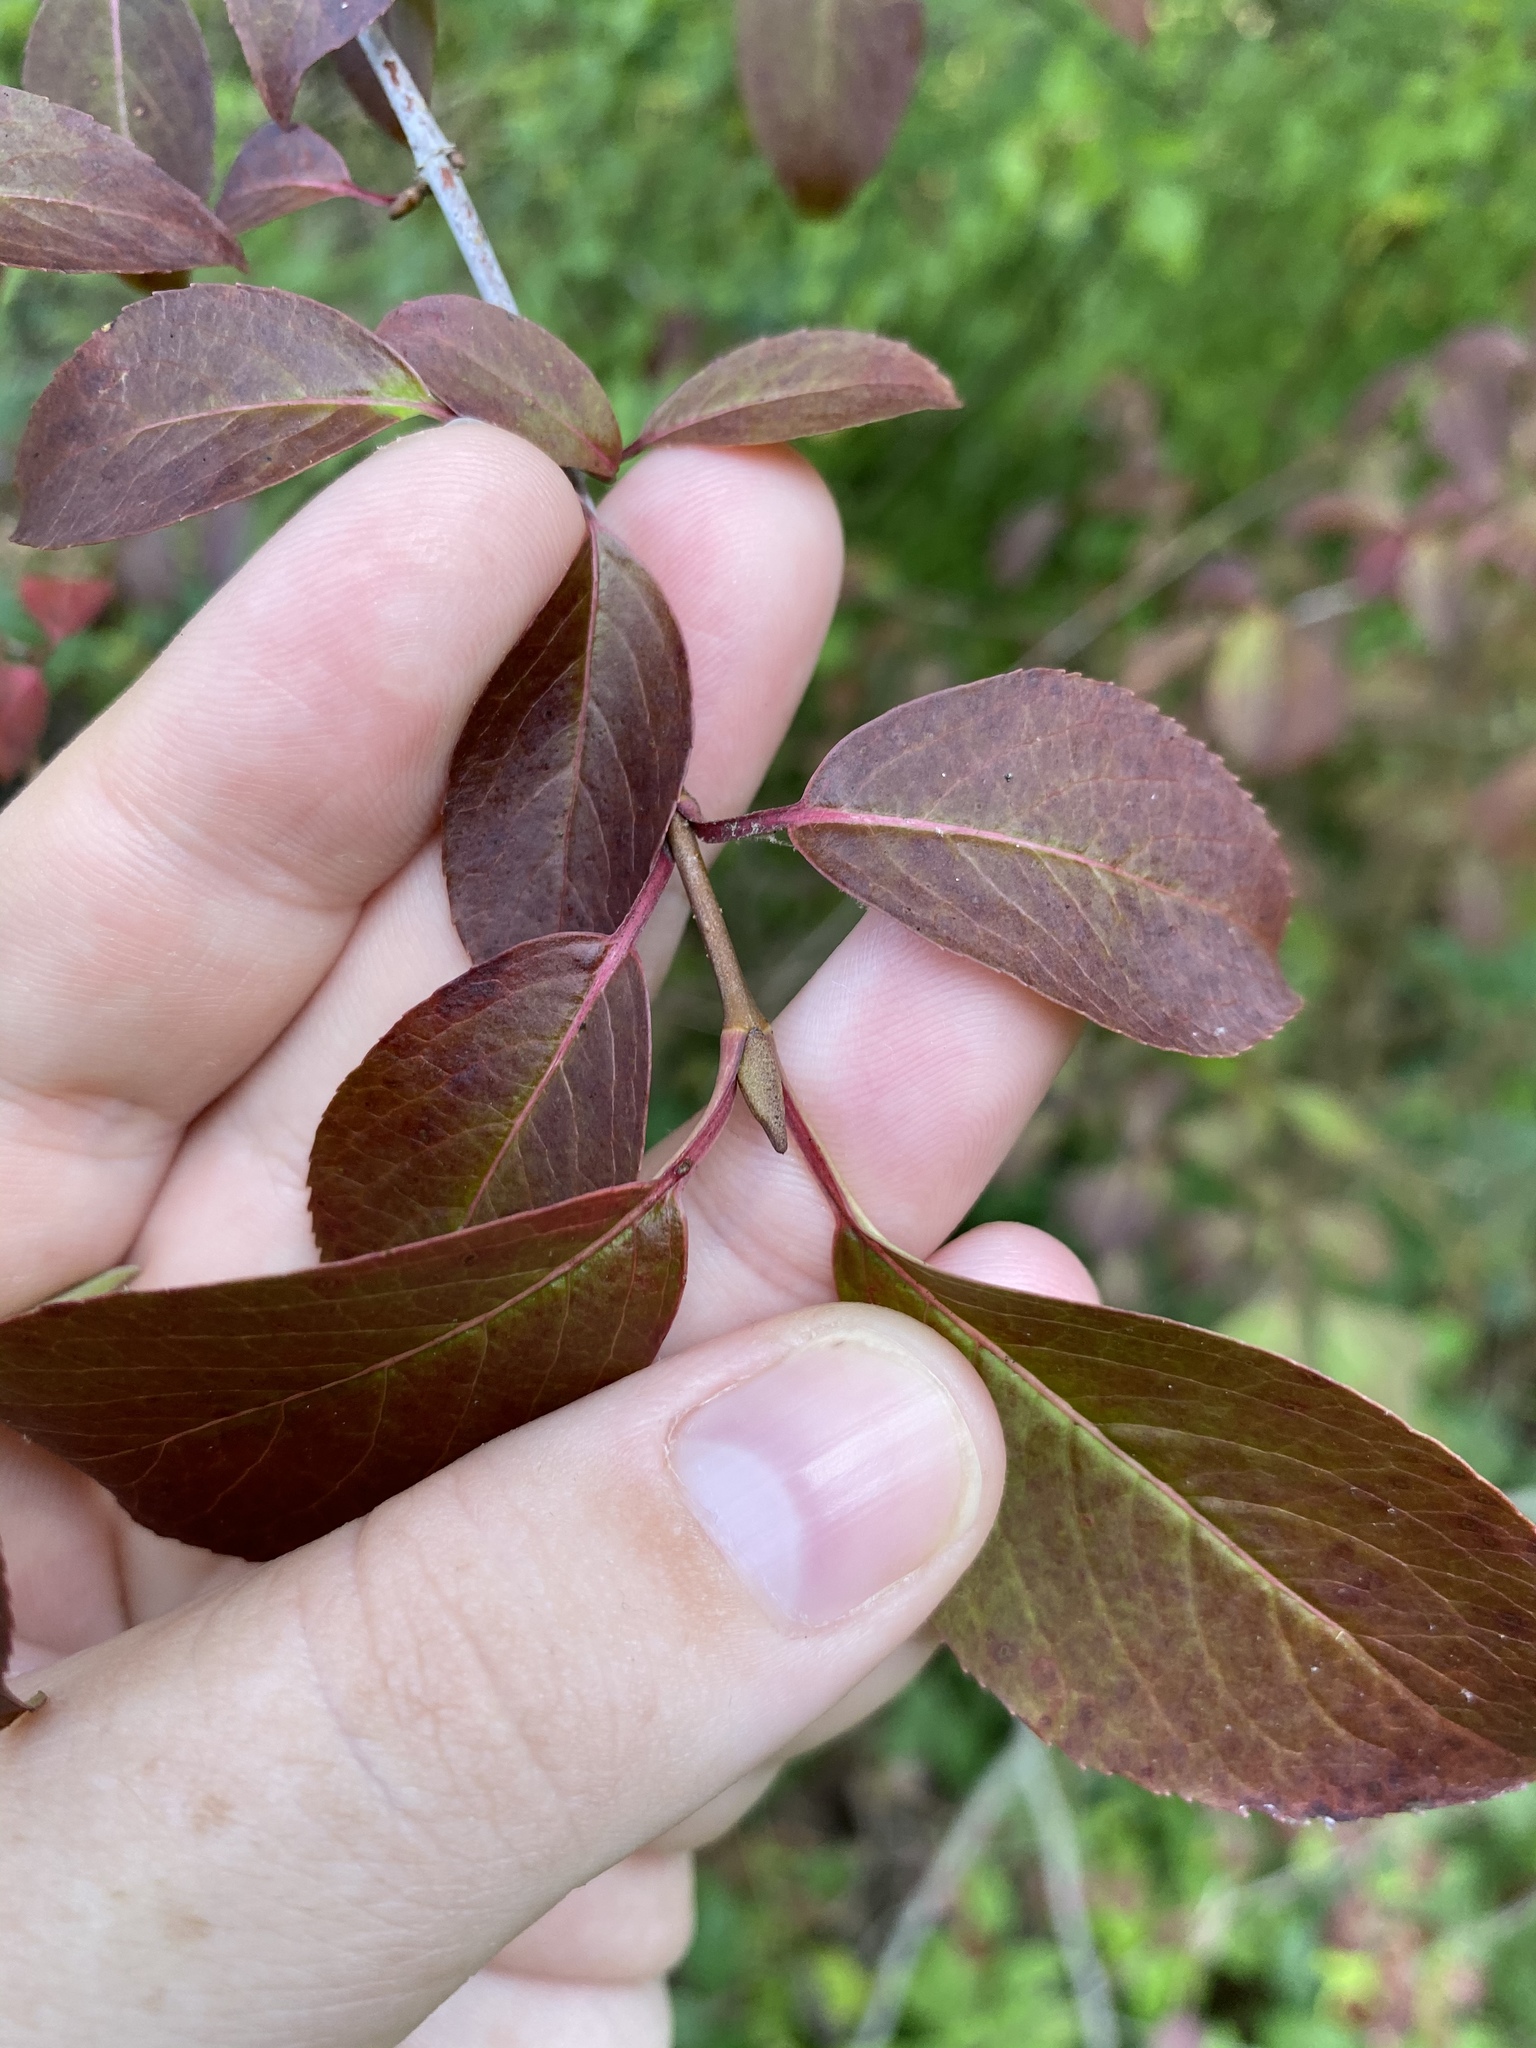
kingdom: Plantae
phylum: Tracheophyta
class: Magnoliopsida
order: Dipsacales
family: Viburnaceae
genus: Viburnum
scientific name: Viburnum prunifolium
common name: Black haw
